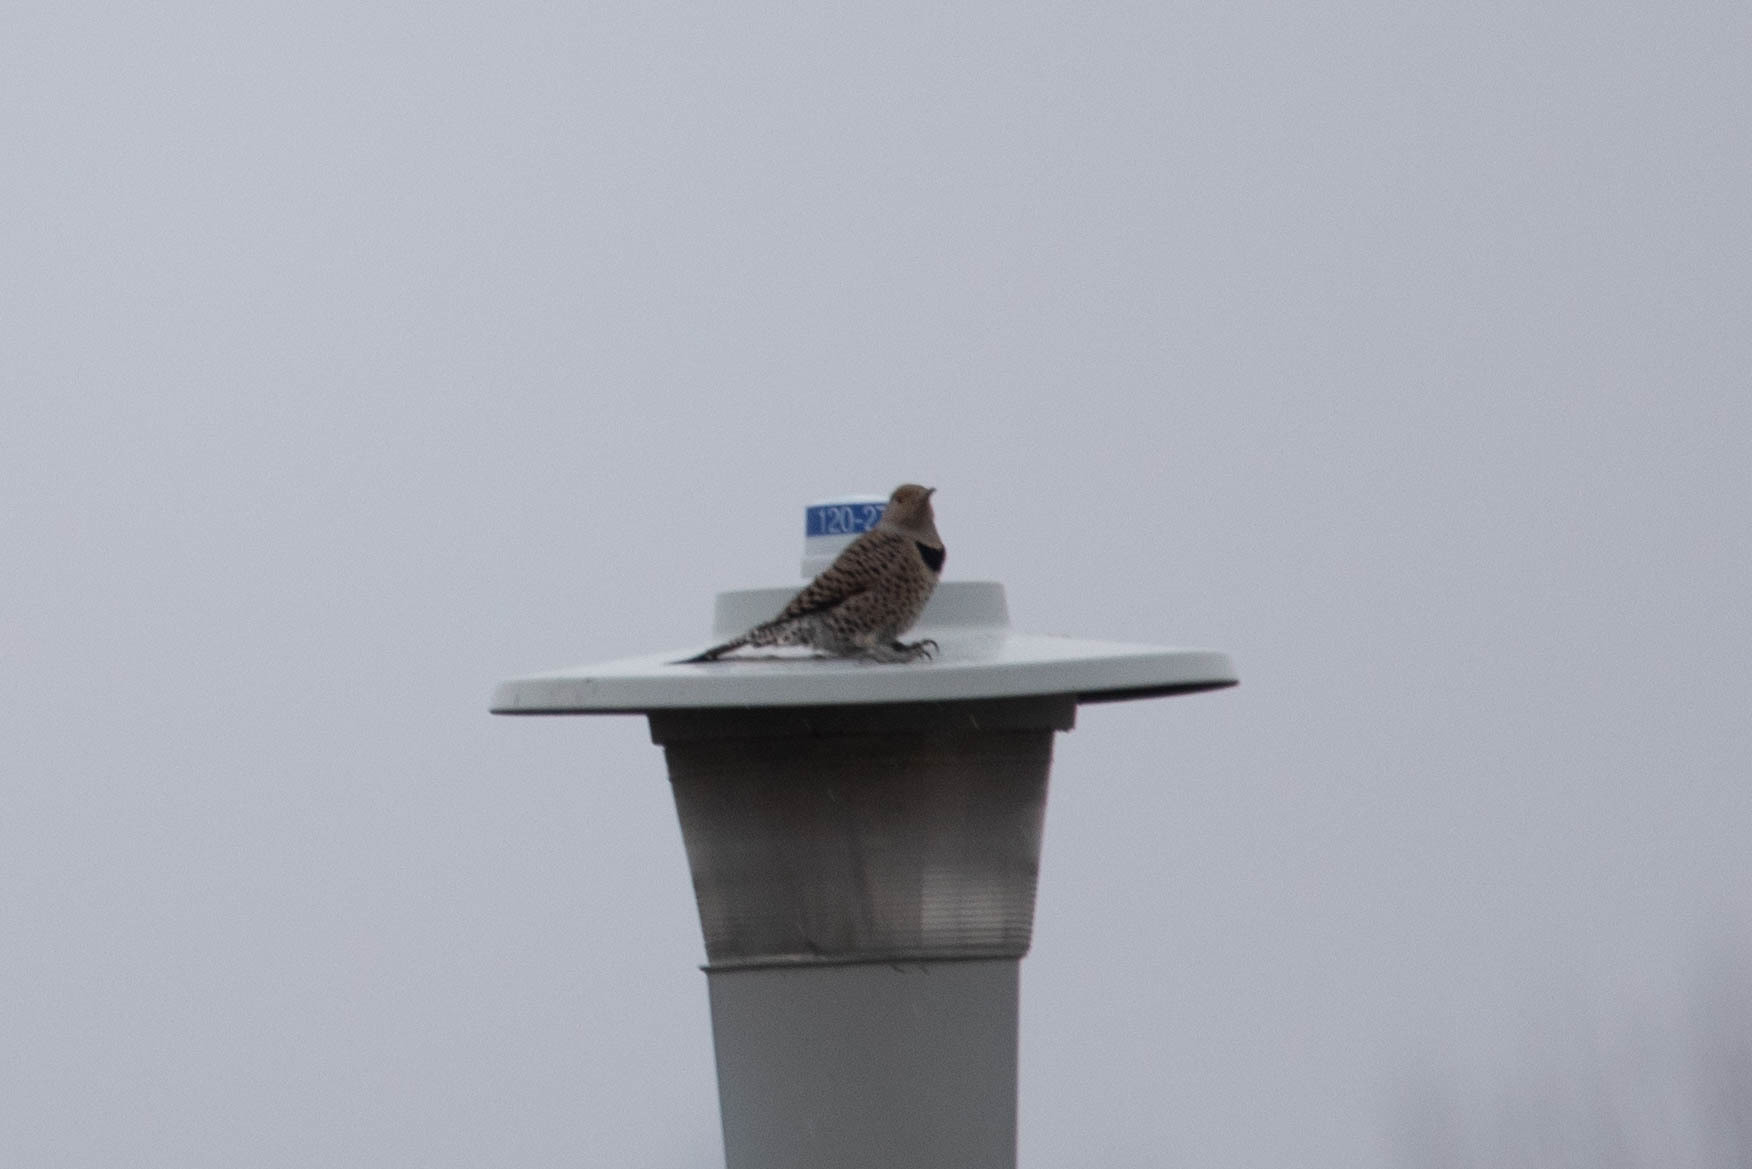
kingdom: Animalia
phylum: Chordata
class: Aves
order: Piciformes
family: Picidae
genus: Colaptes
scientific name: Colaptes auratus
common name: Northern flicker
